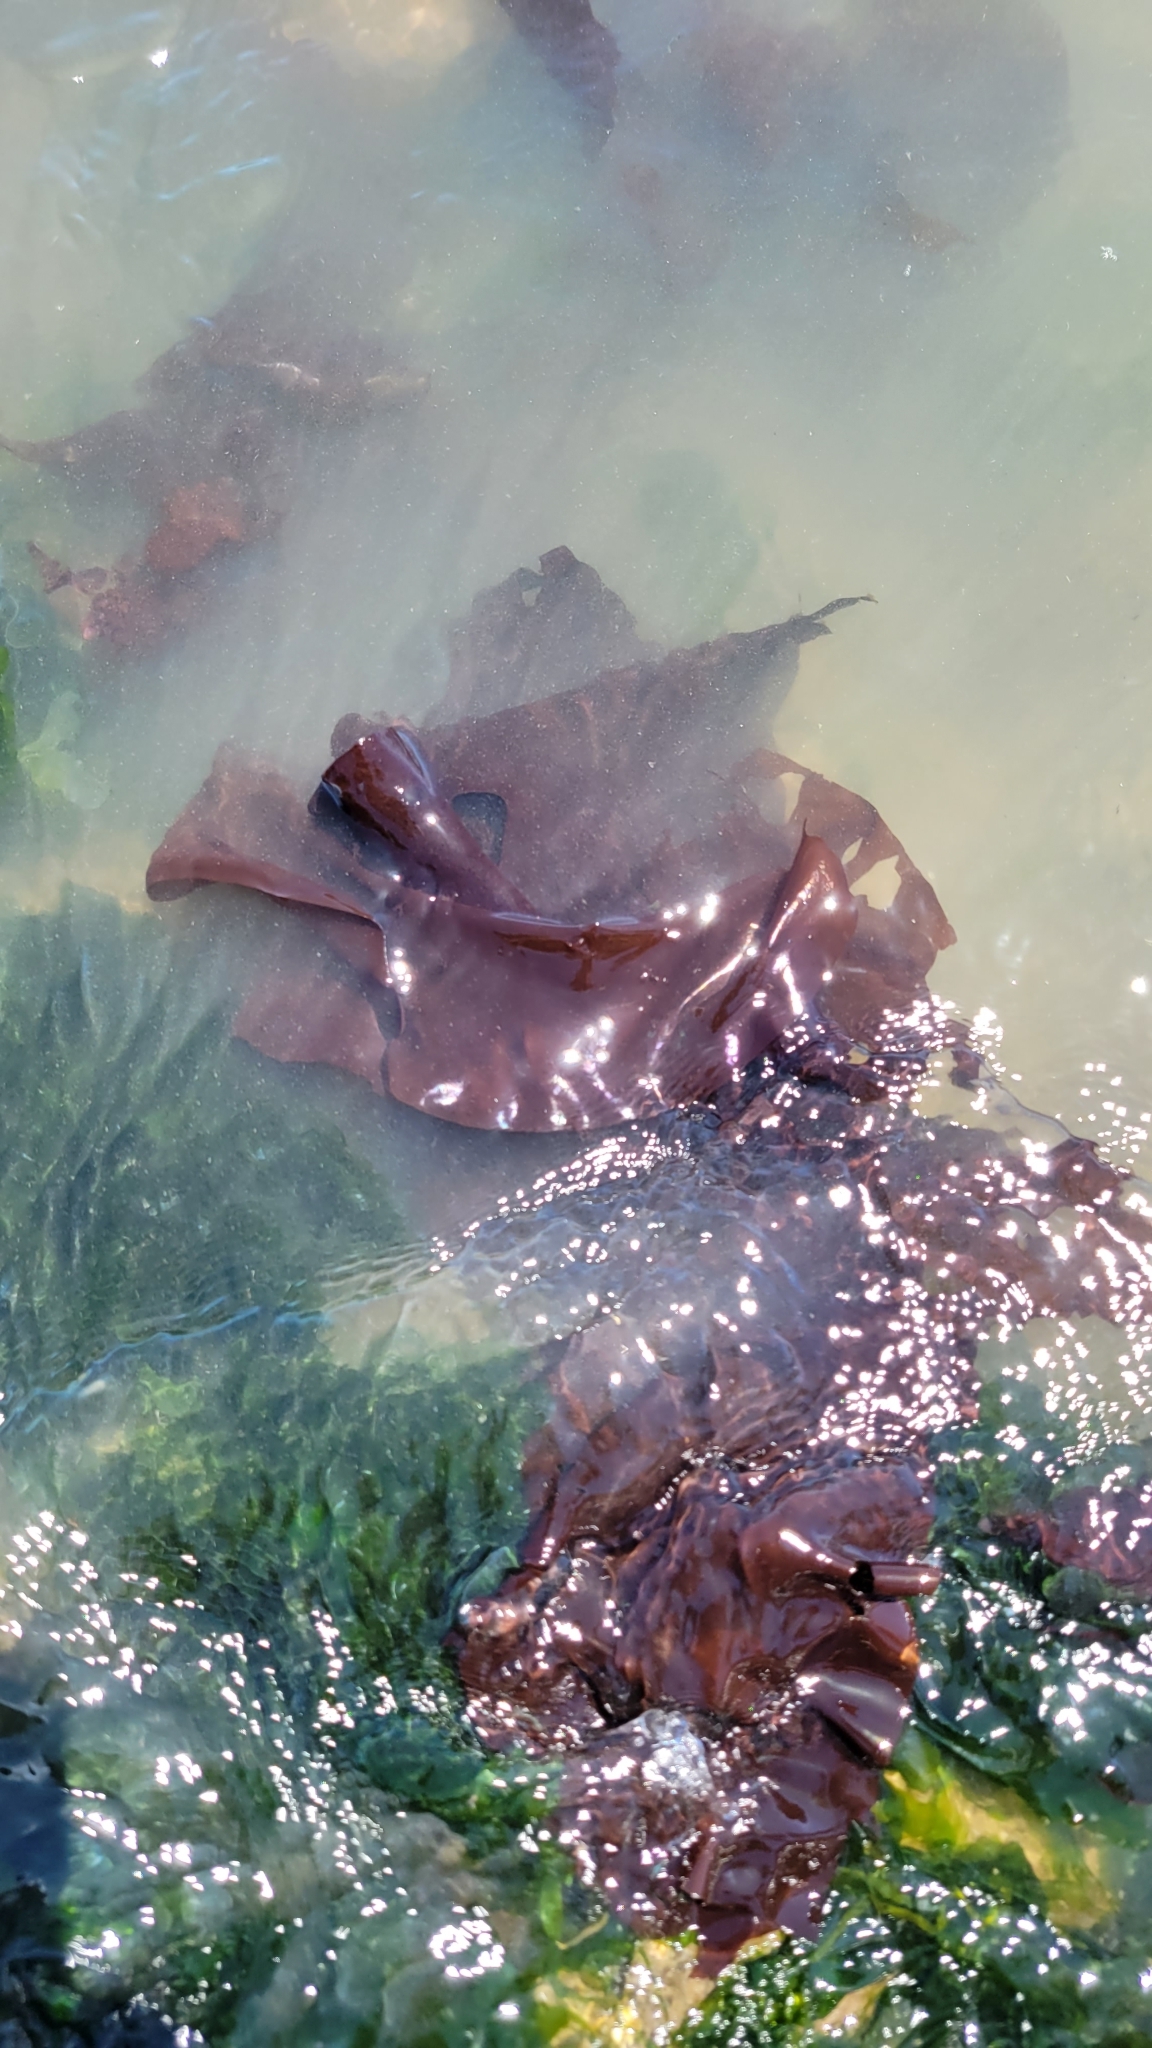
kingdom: Plantae
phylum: Rhodophyta
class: Florideophyceae
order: Gigartinales
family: Gigartinaceae
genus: Mazzaella
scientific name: Mazzaella splendens
